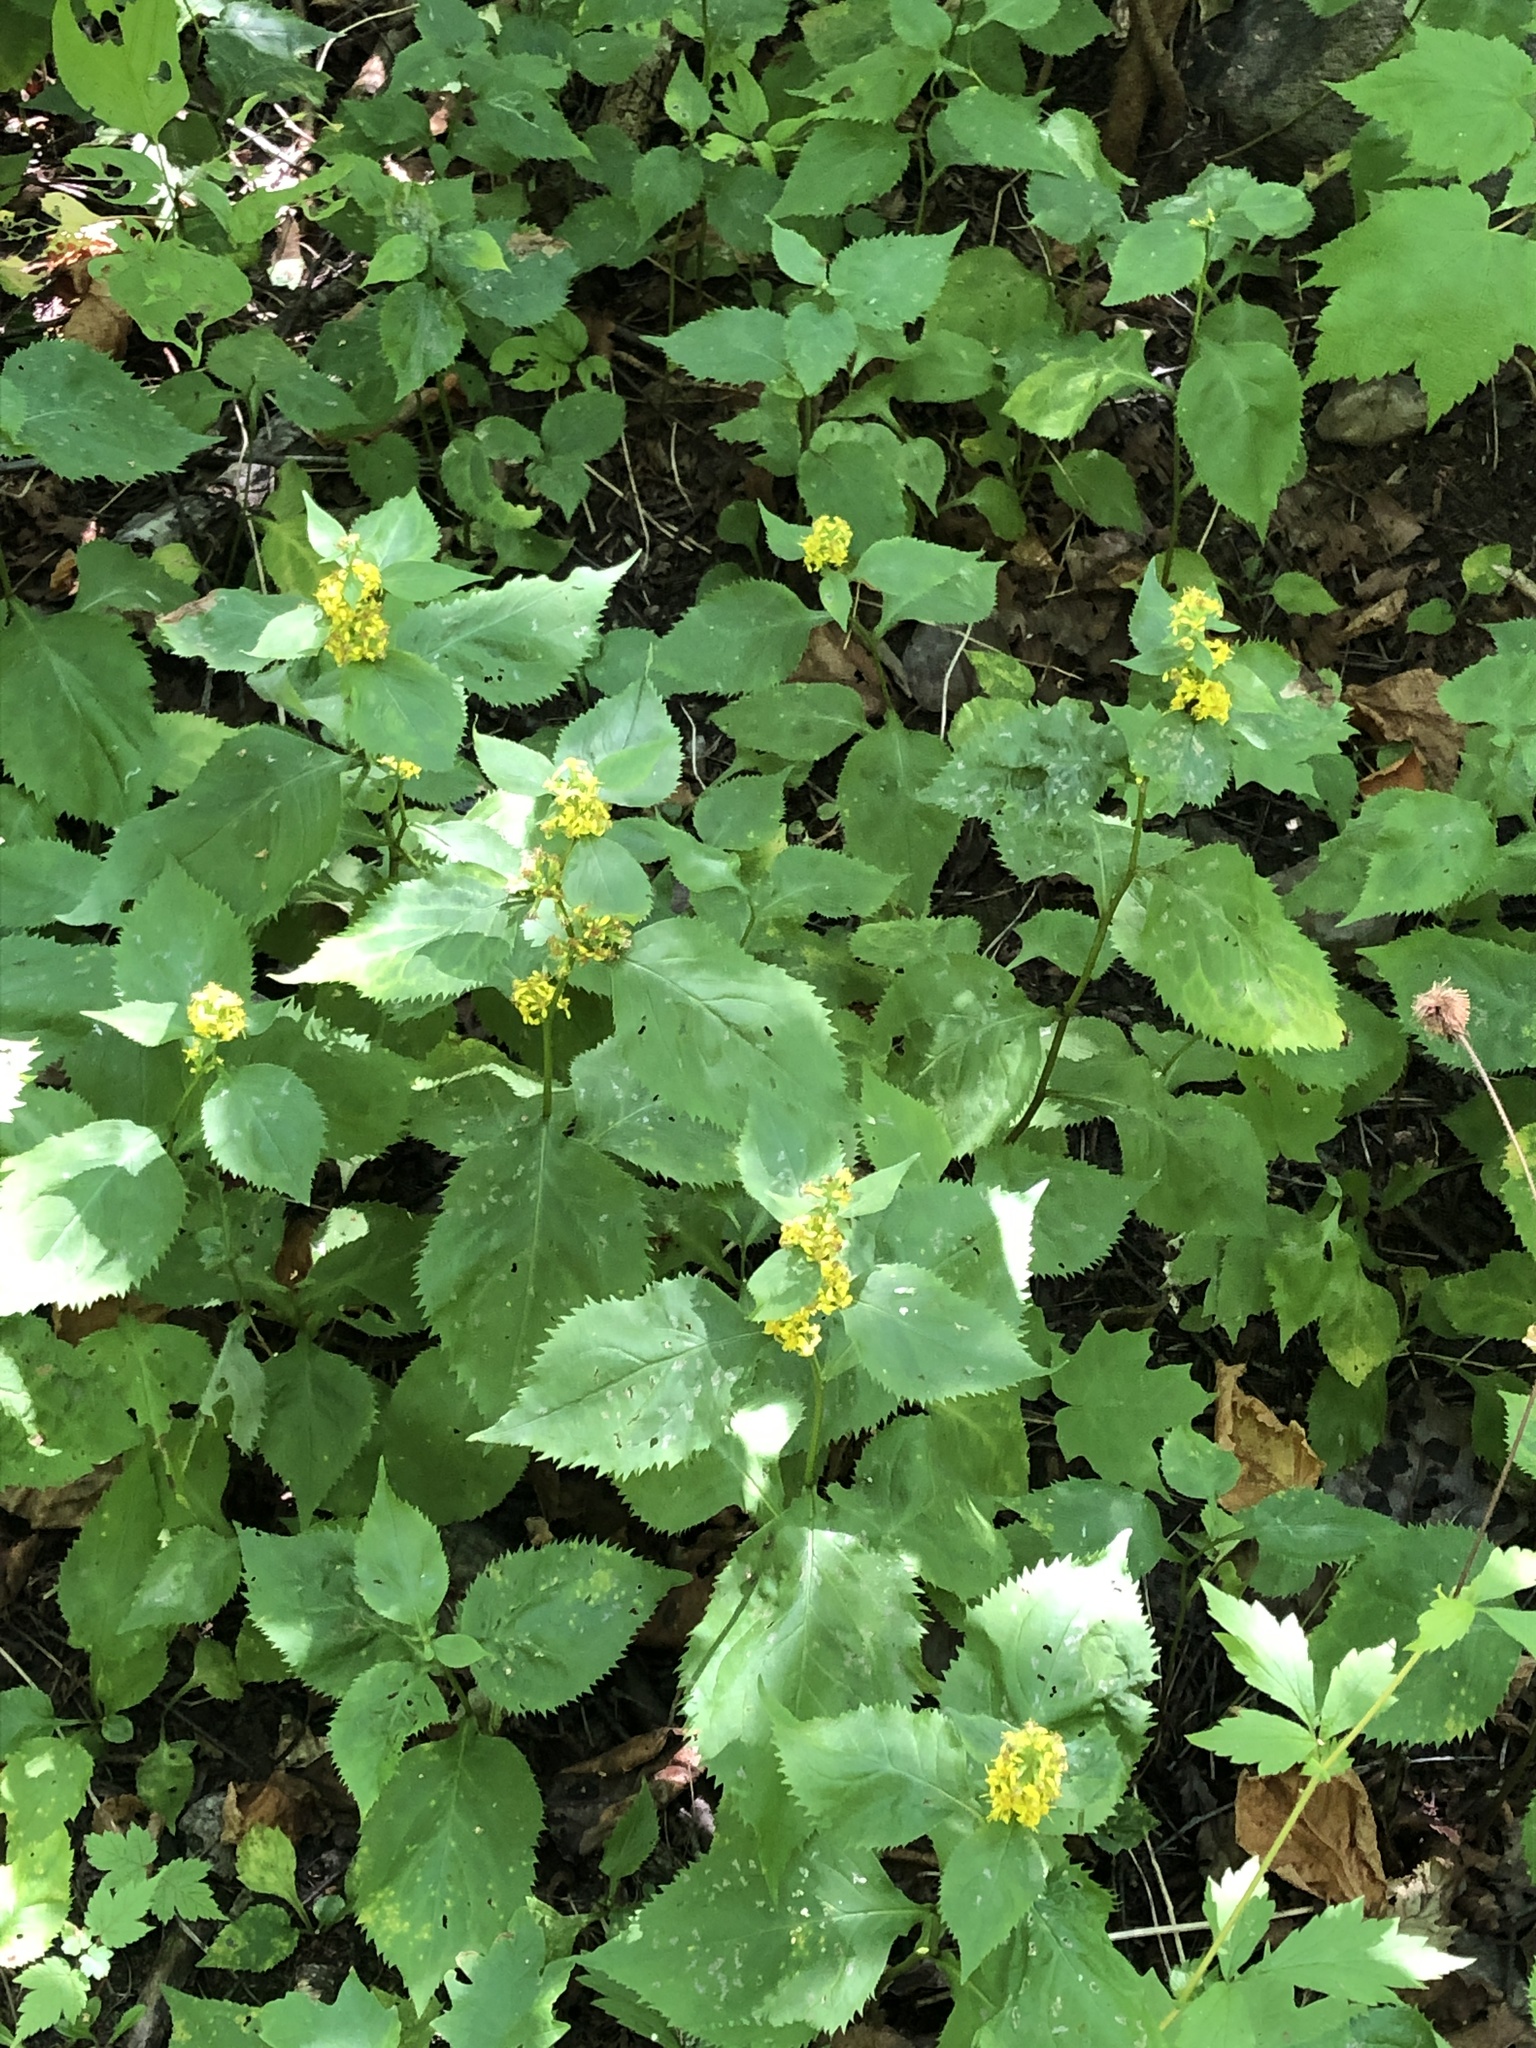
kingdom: Plantae
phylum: Tracheophyta
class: Magnoliopsida
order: Asterales
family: Asteraceae
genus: Solidago
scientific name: Solidago flexicaulis
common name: Zig-zag goldenrod
